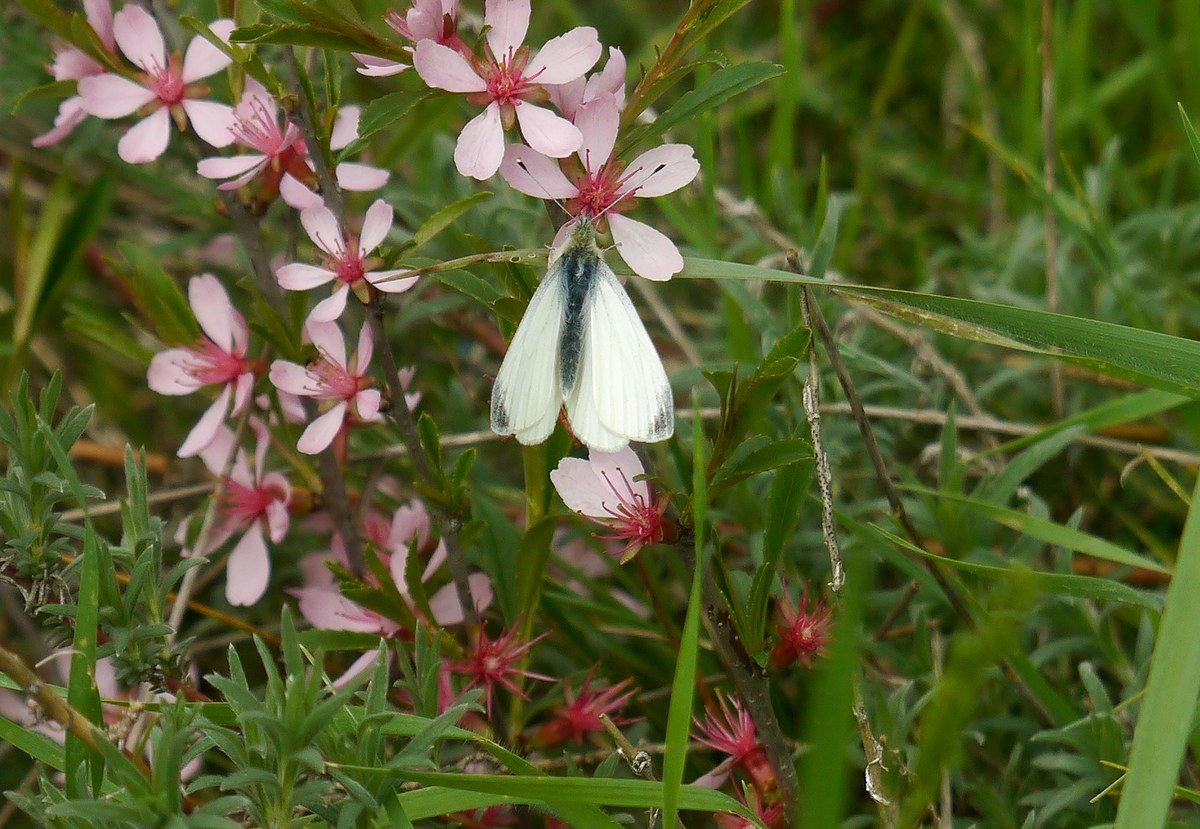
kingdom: Animalia
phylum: Arthropoda
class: Insecta
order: Lepidoptera
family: Pieridae
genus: Pieris
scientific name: Pieris napi
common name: Green-veined white
